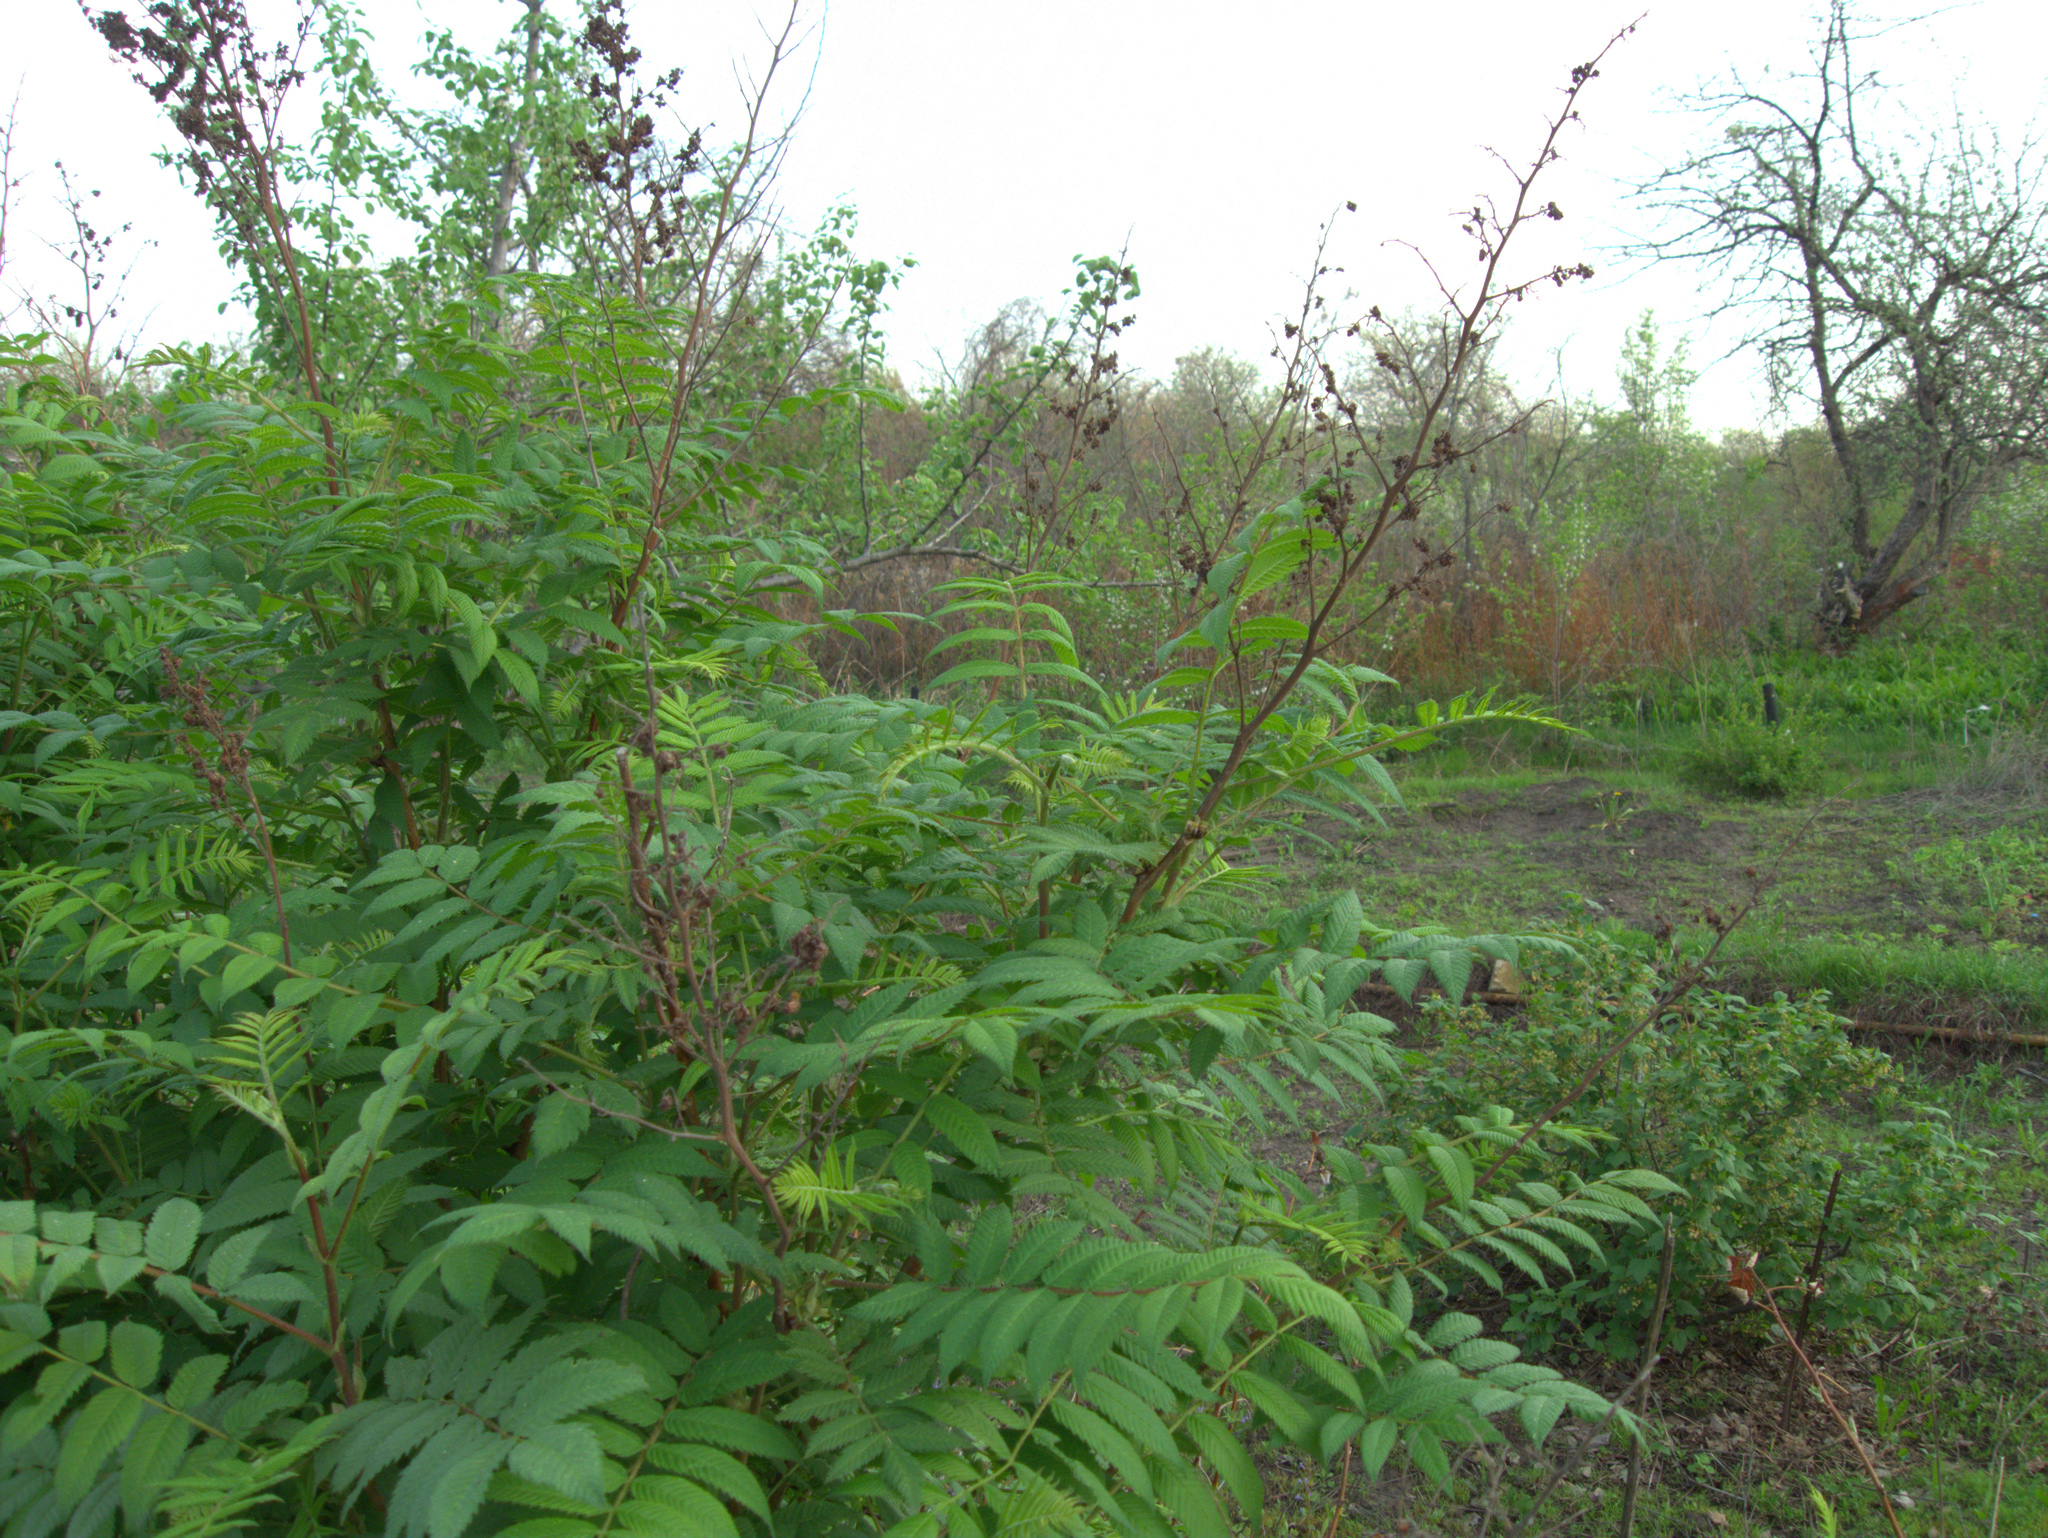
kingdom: Plantae
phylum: Tracheophyta
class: Magnoliopsida
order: Rosales
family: Rosaceae
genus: Sorbaria
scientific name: Sorbaria sorbifolia
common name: False spiraea
